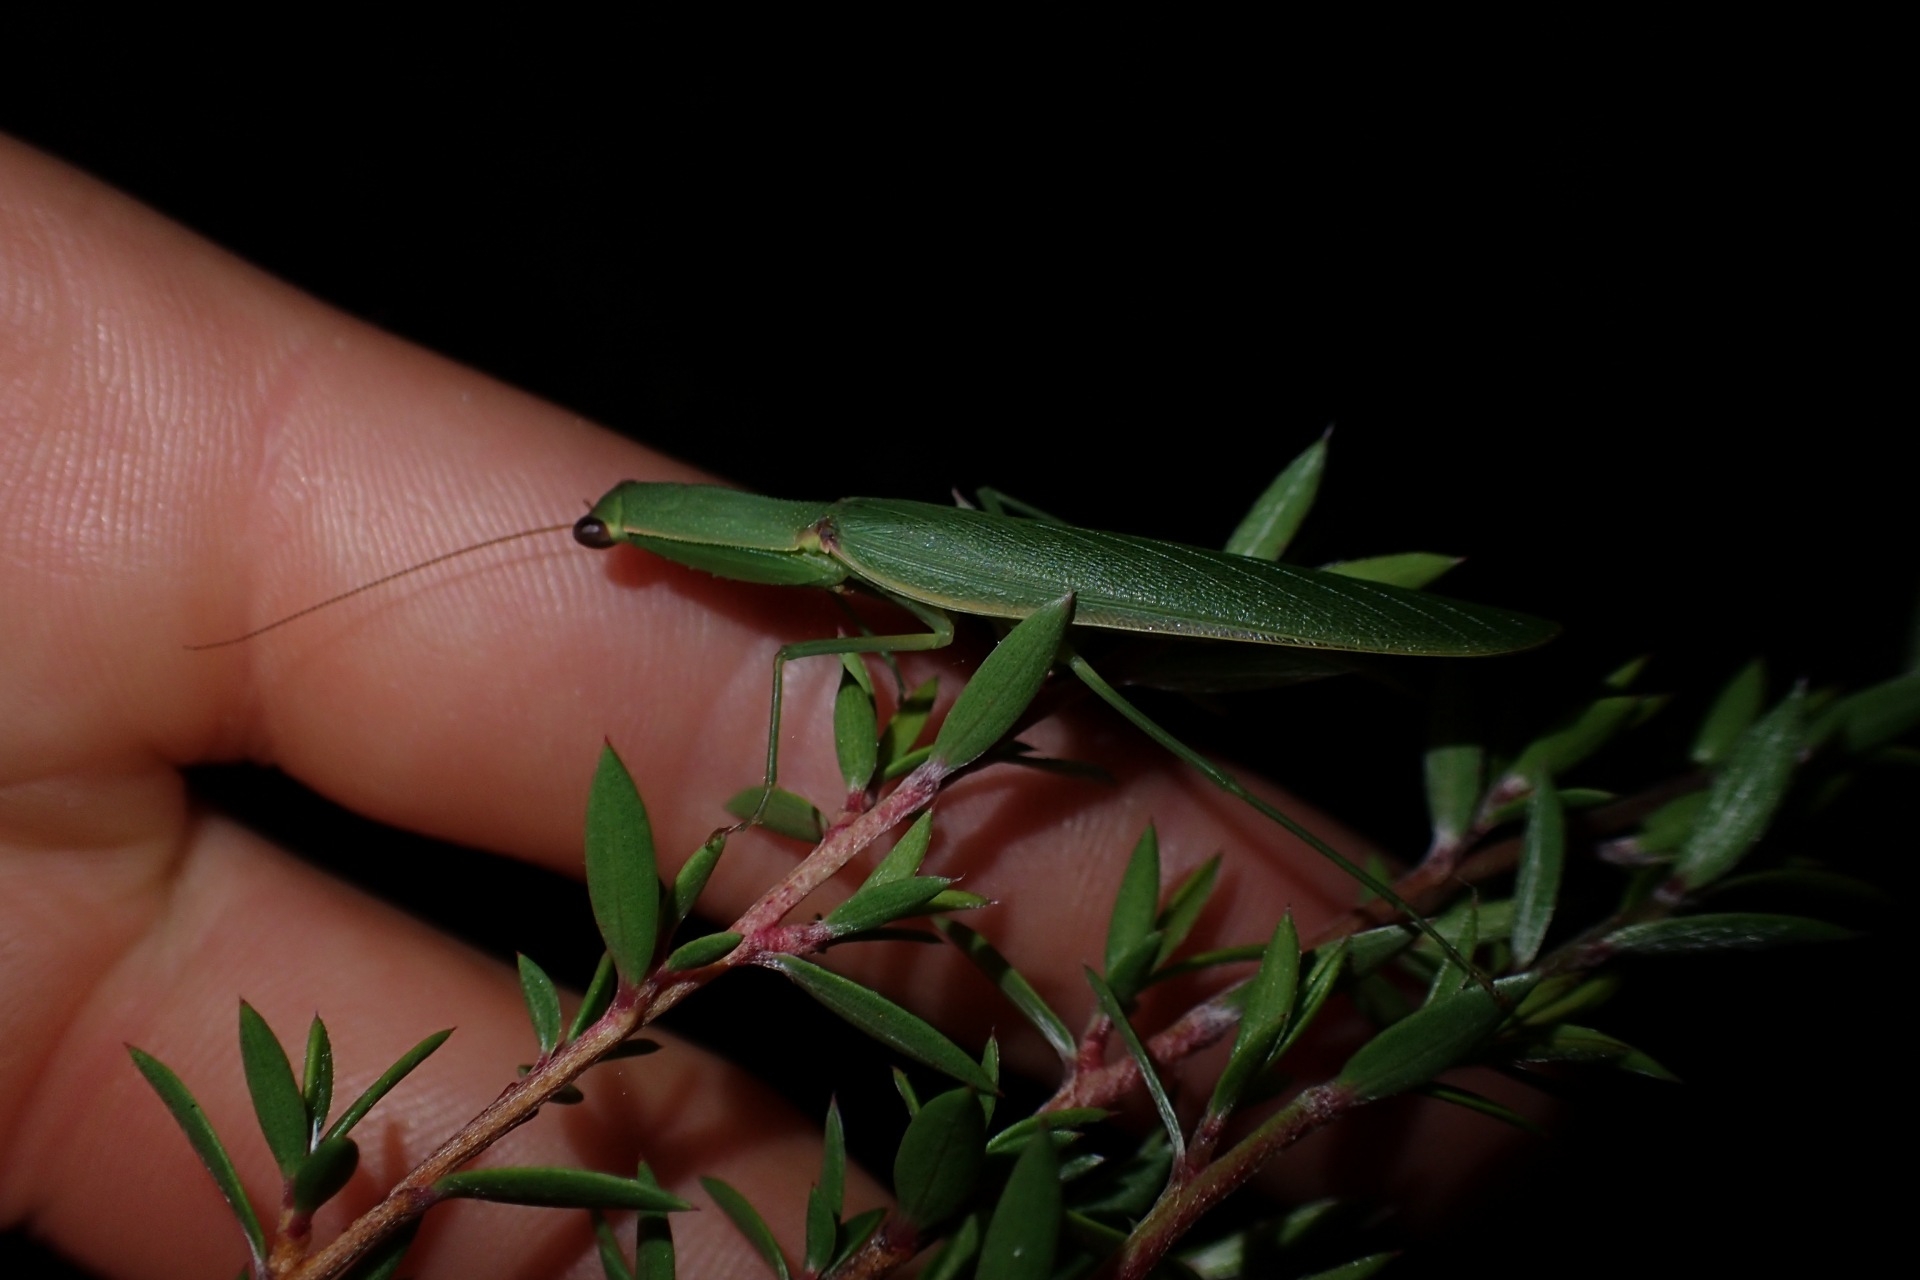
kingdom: Animalia
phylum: Arthropoda
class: Insecta
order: Mantodea
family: Mantidae
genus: Orthodera
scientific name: Orthodera novaezealandiae
